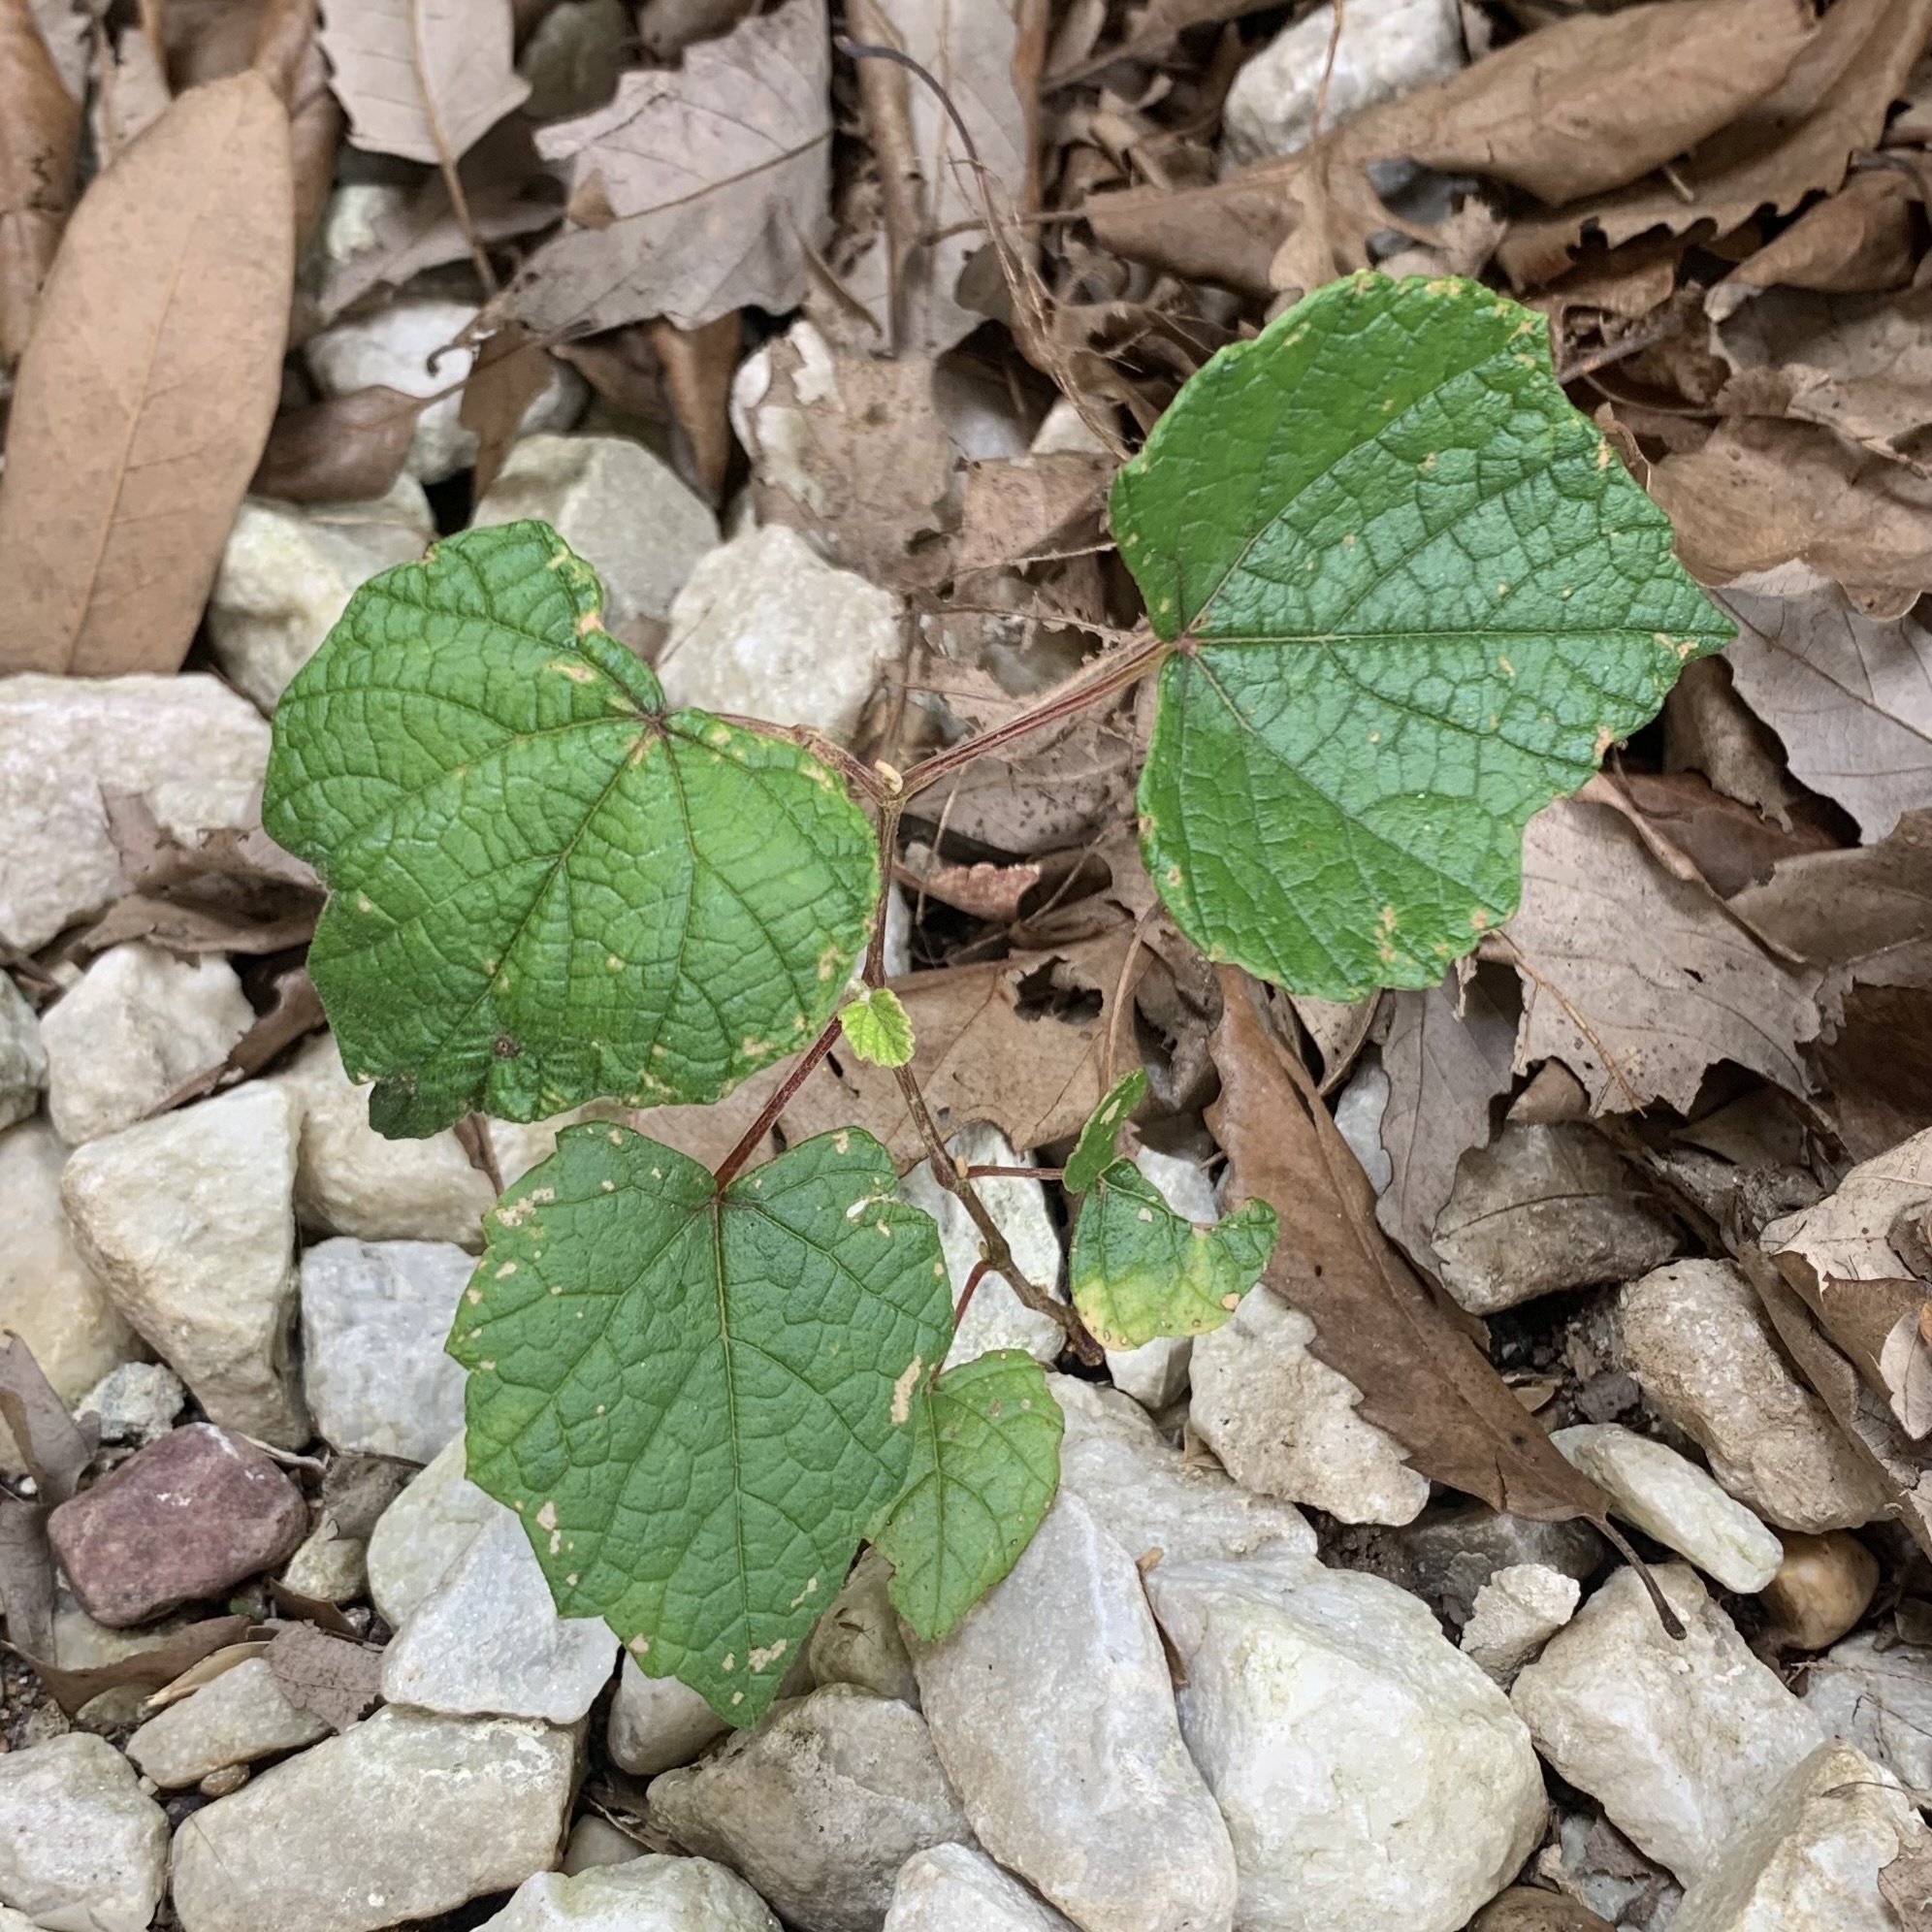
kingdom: Plantae
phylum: Tracheophyta
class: Magnoliopsida
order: Vitales
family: Vitaceae
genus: Vitis
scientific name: Vitis mustangensis
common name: Mustang grape
